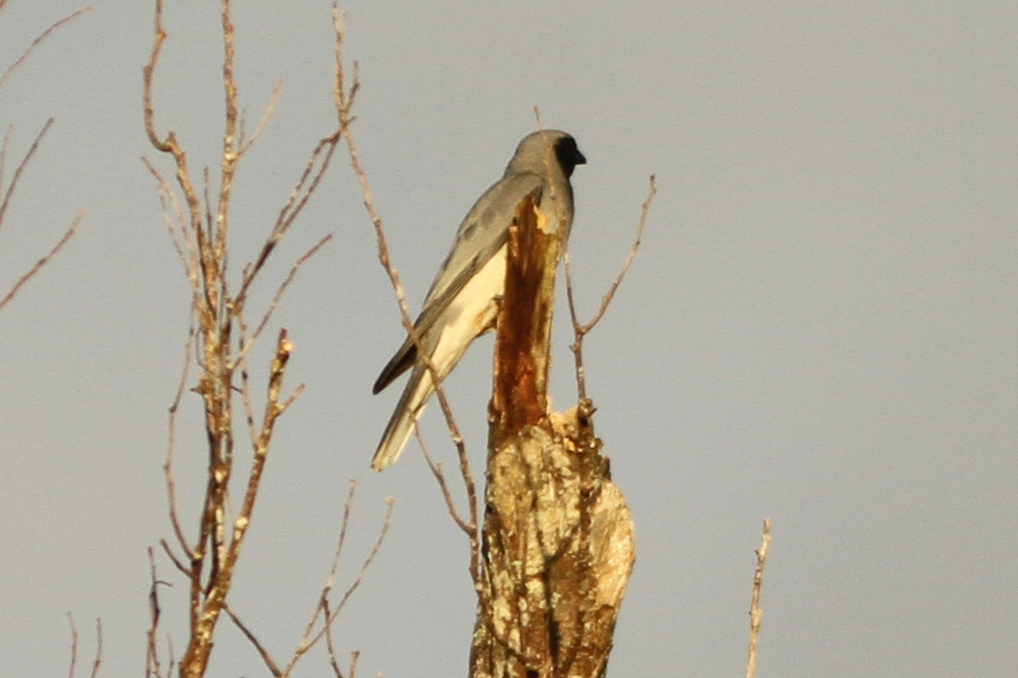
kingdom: Animalia
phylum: Chordata
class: Aves
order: Passeriformes
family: Campephagidae
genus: Coracina
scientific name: Coracina novaehollandiae
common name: Black-faced cuckooshrike
